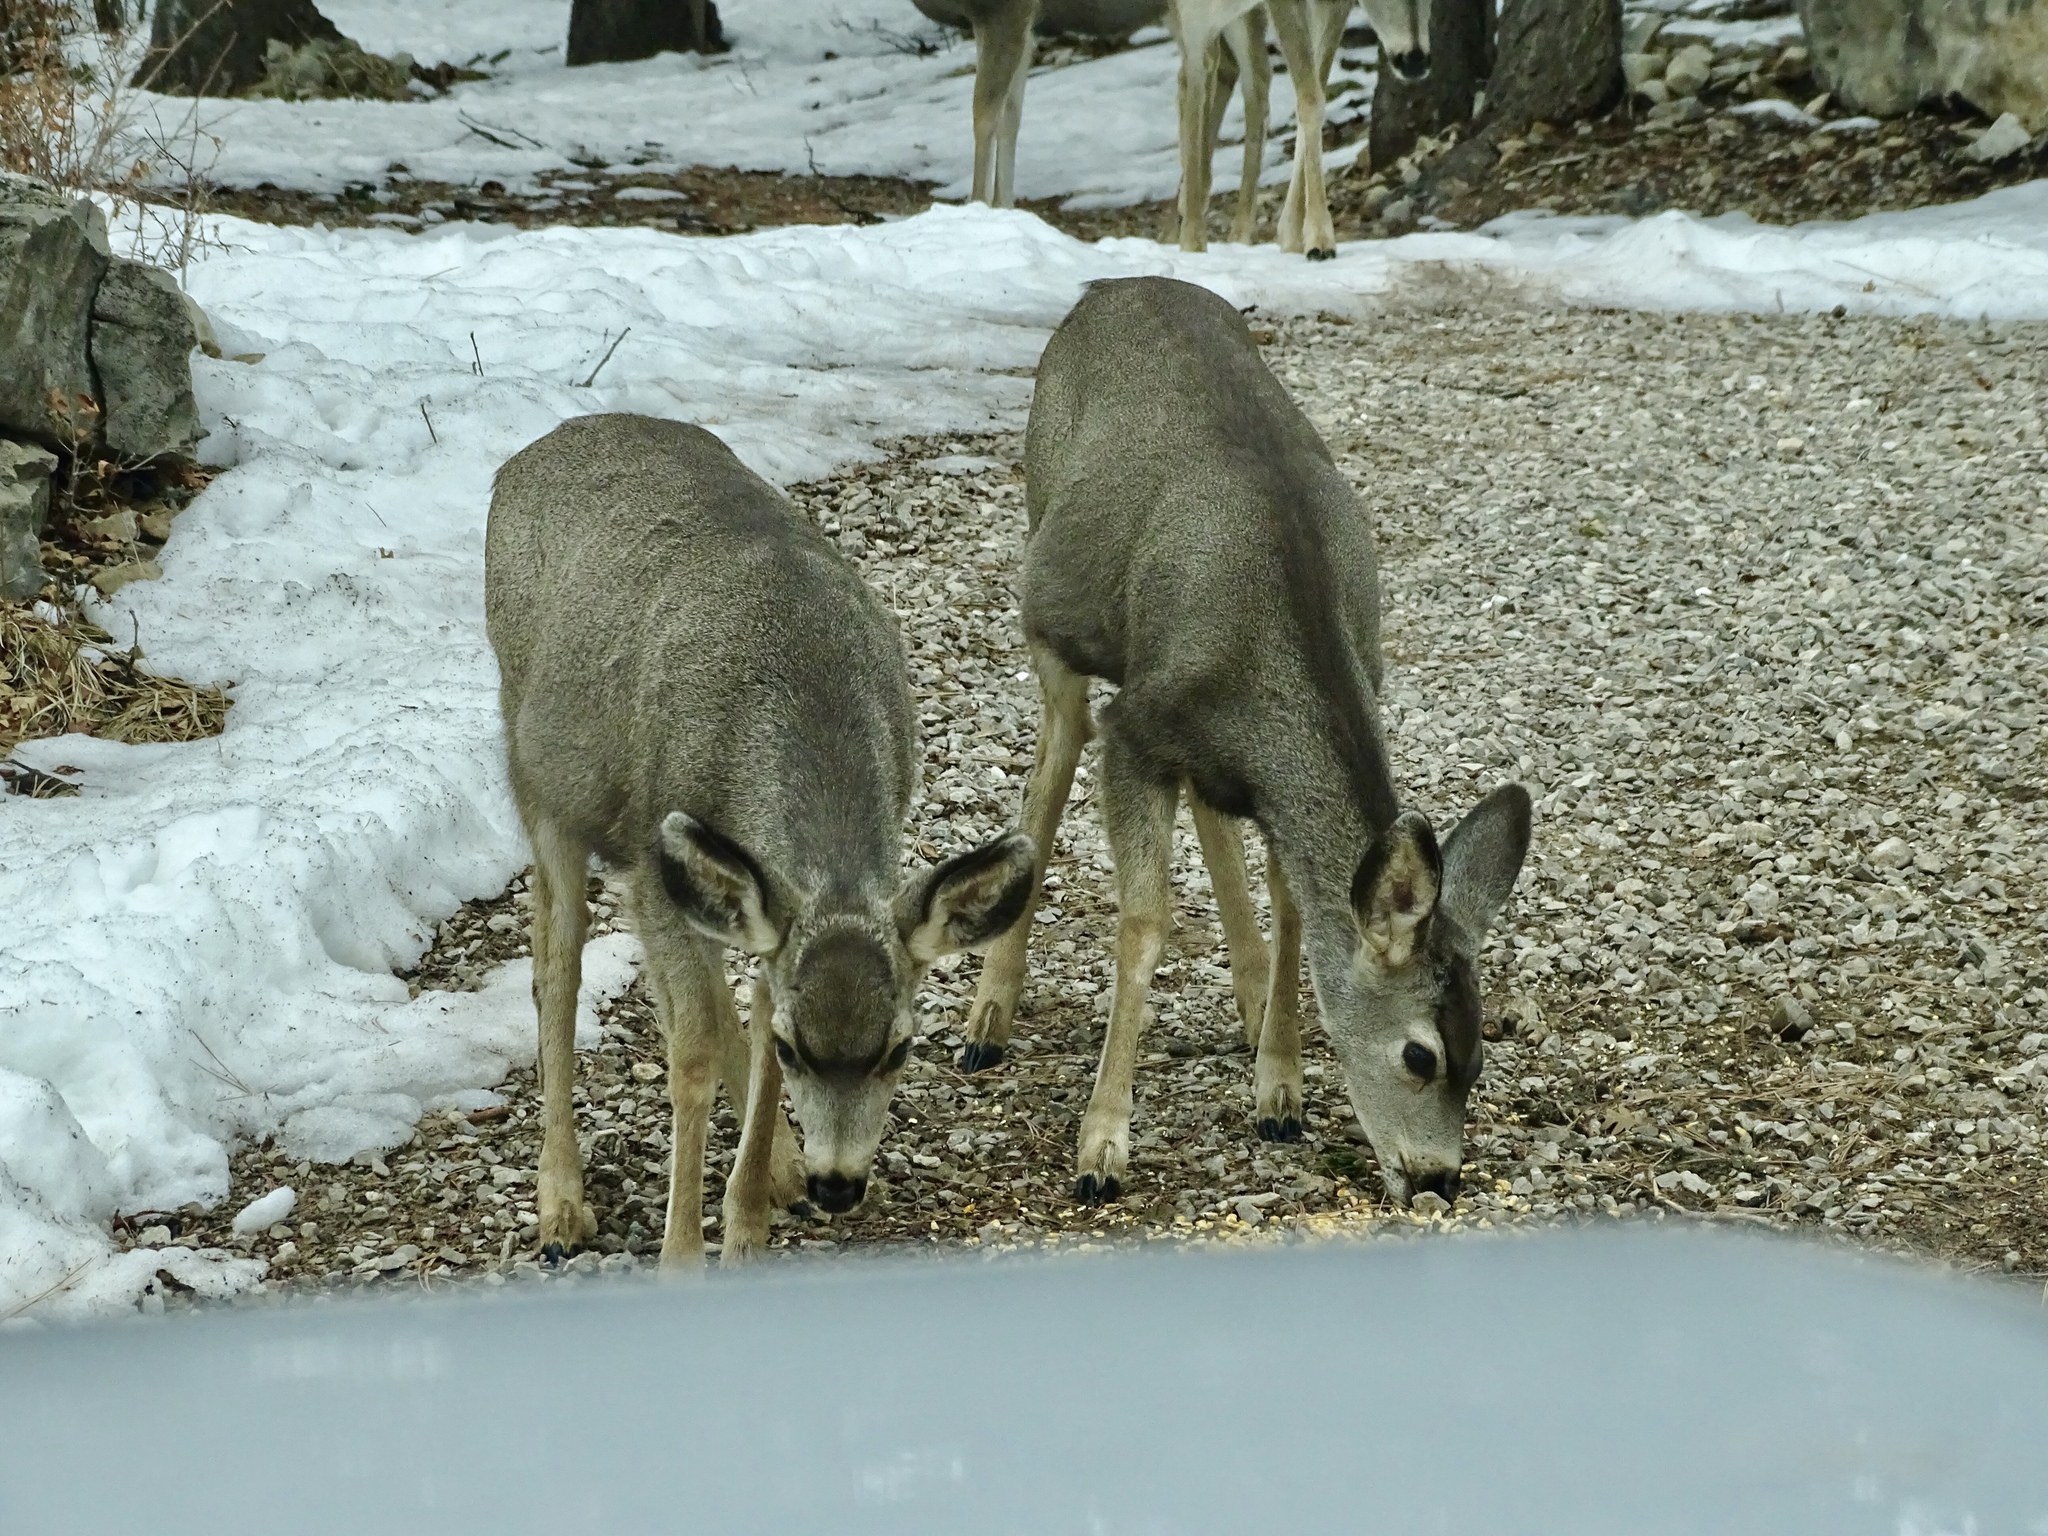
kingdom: Animalia
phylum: Chordata
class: Mammalia
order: Artiodactyla
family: Cervidae
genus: Odocoileus
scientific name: Odocoileus hemionus
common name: Mule deer
